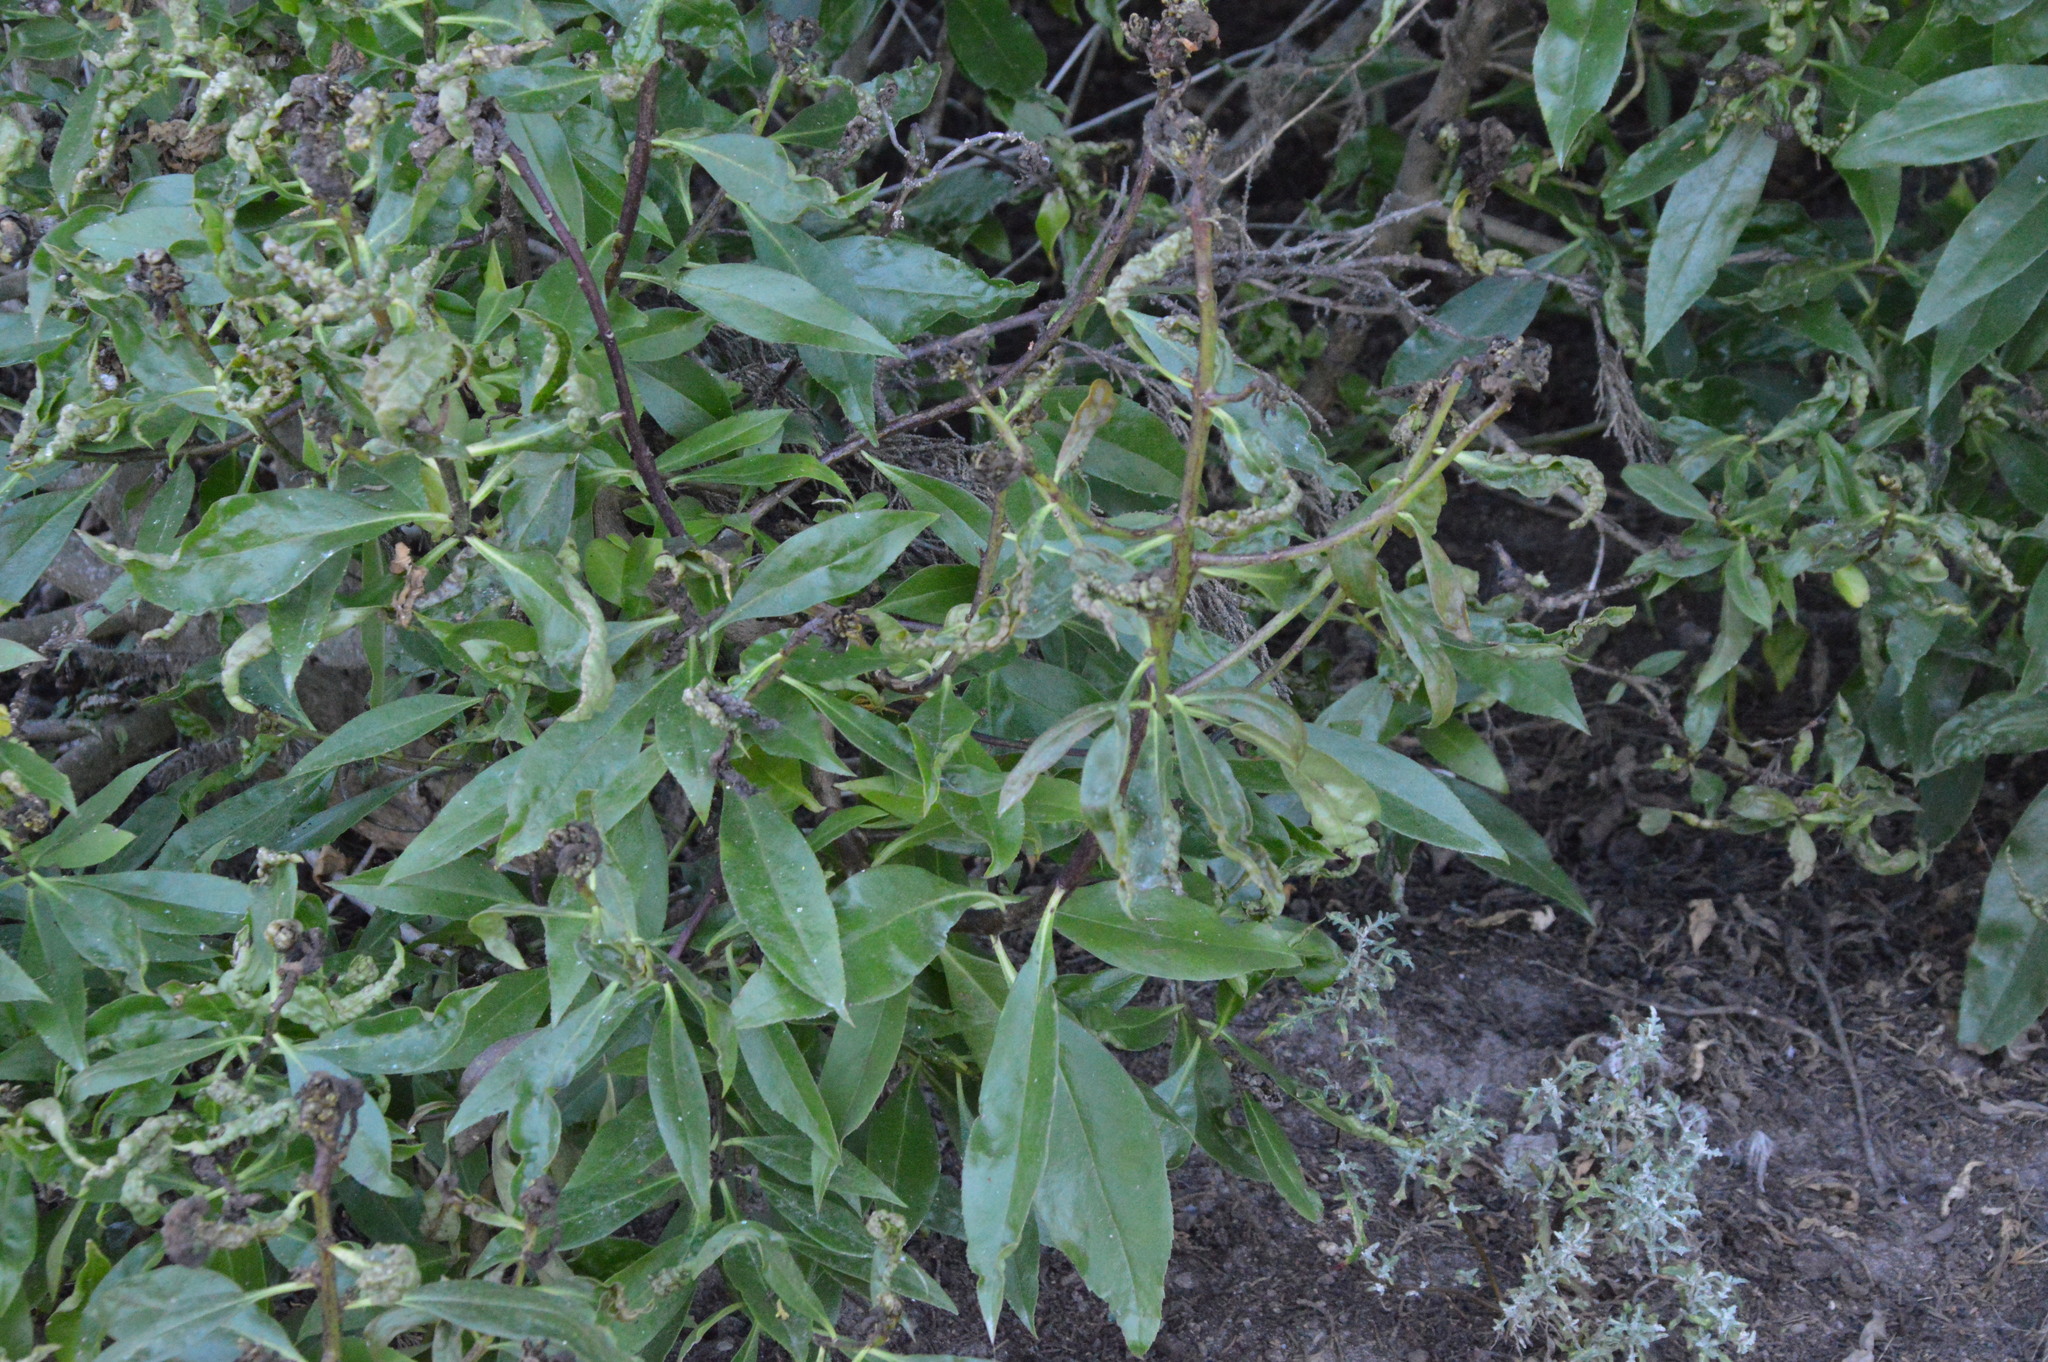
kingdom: Plantae
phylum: Tracheophyta
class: Magnoliopsida
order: Lamiales
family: Scrophulariaceae
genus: Myoporum
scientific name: Myoporum laetum
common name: Ngaio tree
